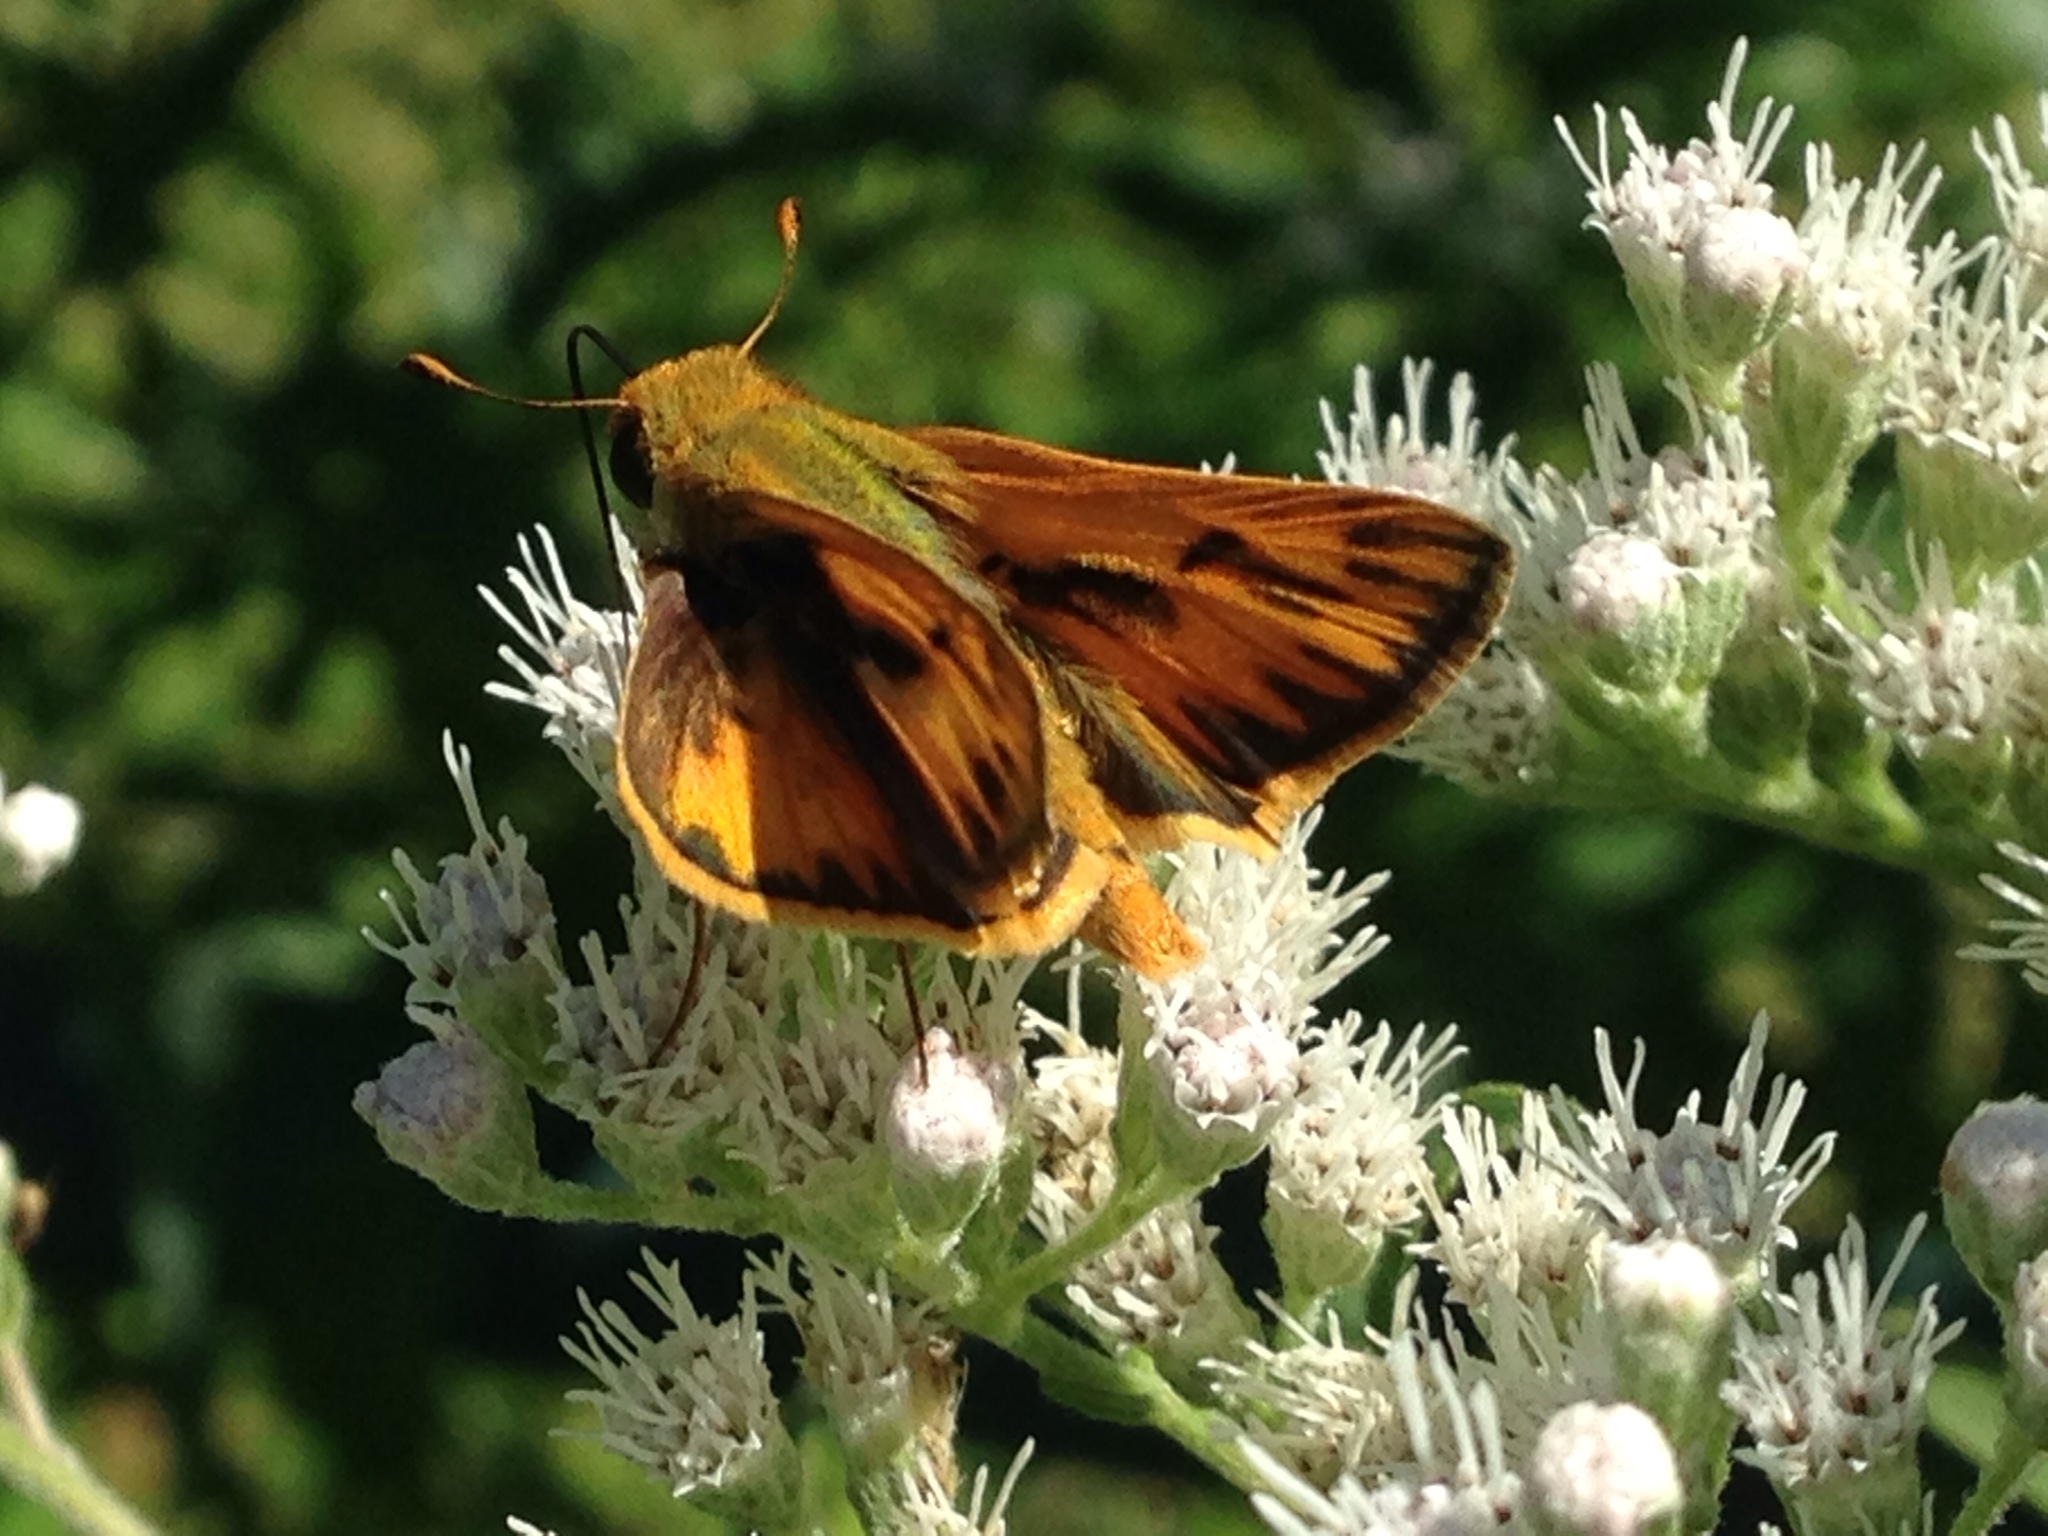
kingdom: Animalia
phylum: Arthropoda
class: Insecta
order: Lepidoptera
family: Hesperiidae
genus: Hylephila
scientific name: Hylephila phyleus
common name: Fiery skipper
